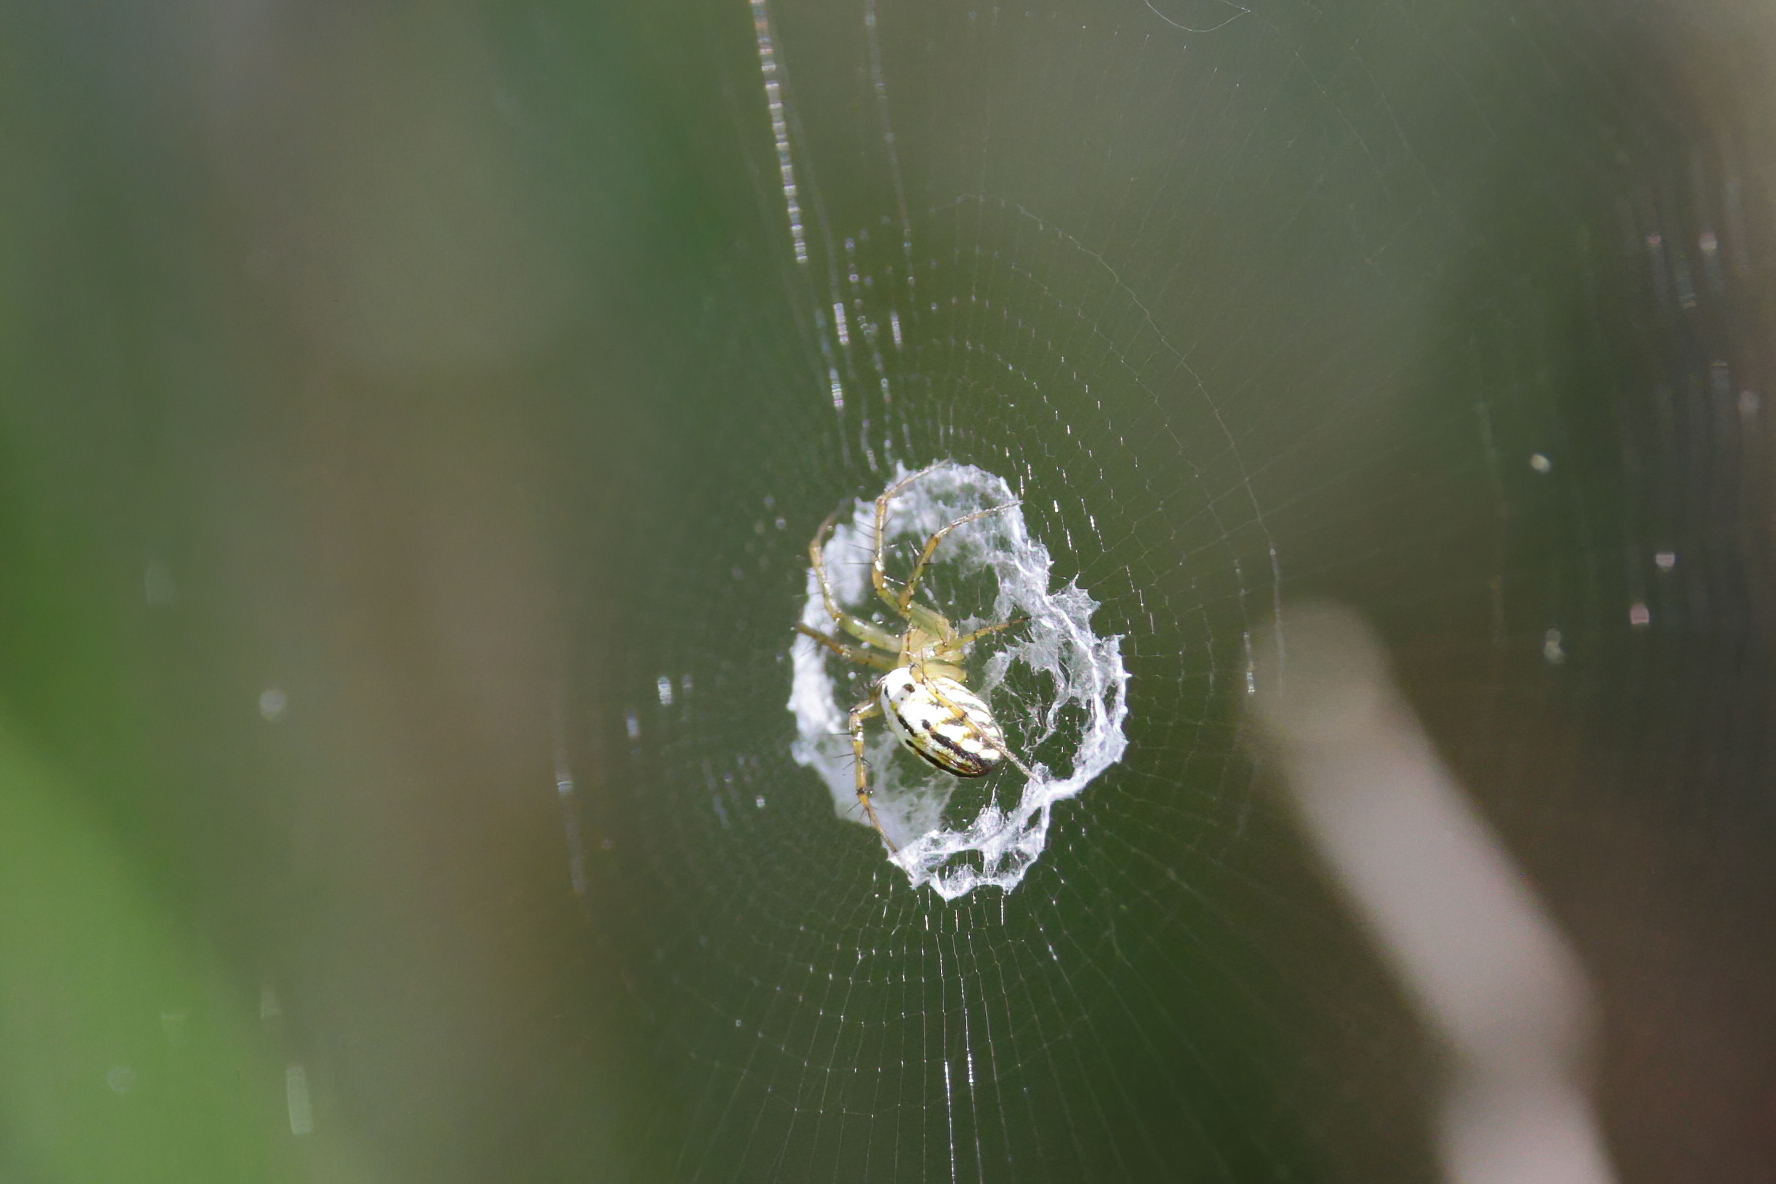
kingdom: Animalia
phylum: Arthropoda
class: Arachnida
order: Araneae
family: Araneidae
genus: Mangora
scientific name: Mangora gibberosa
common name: Lined orbweaver
